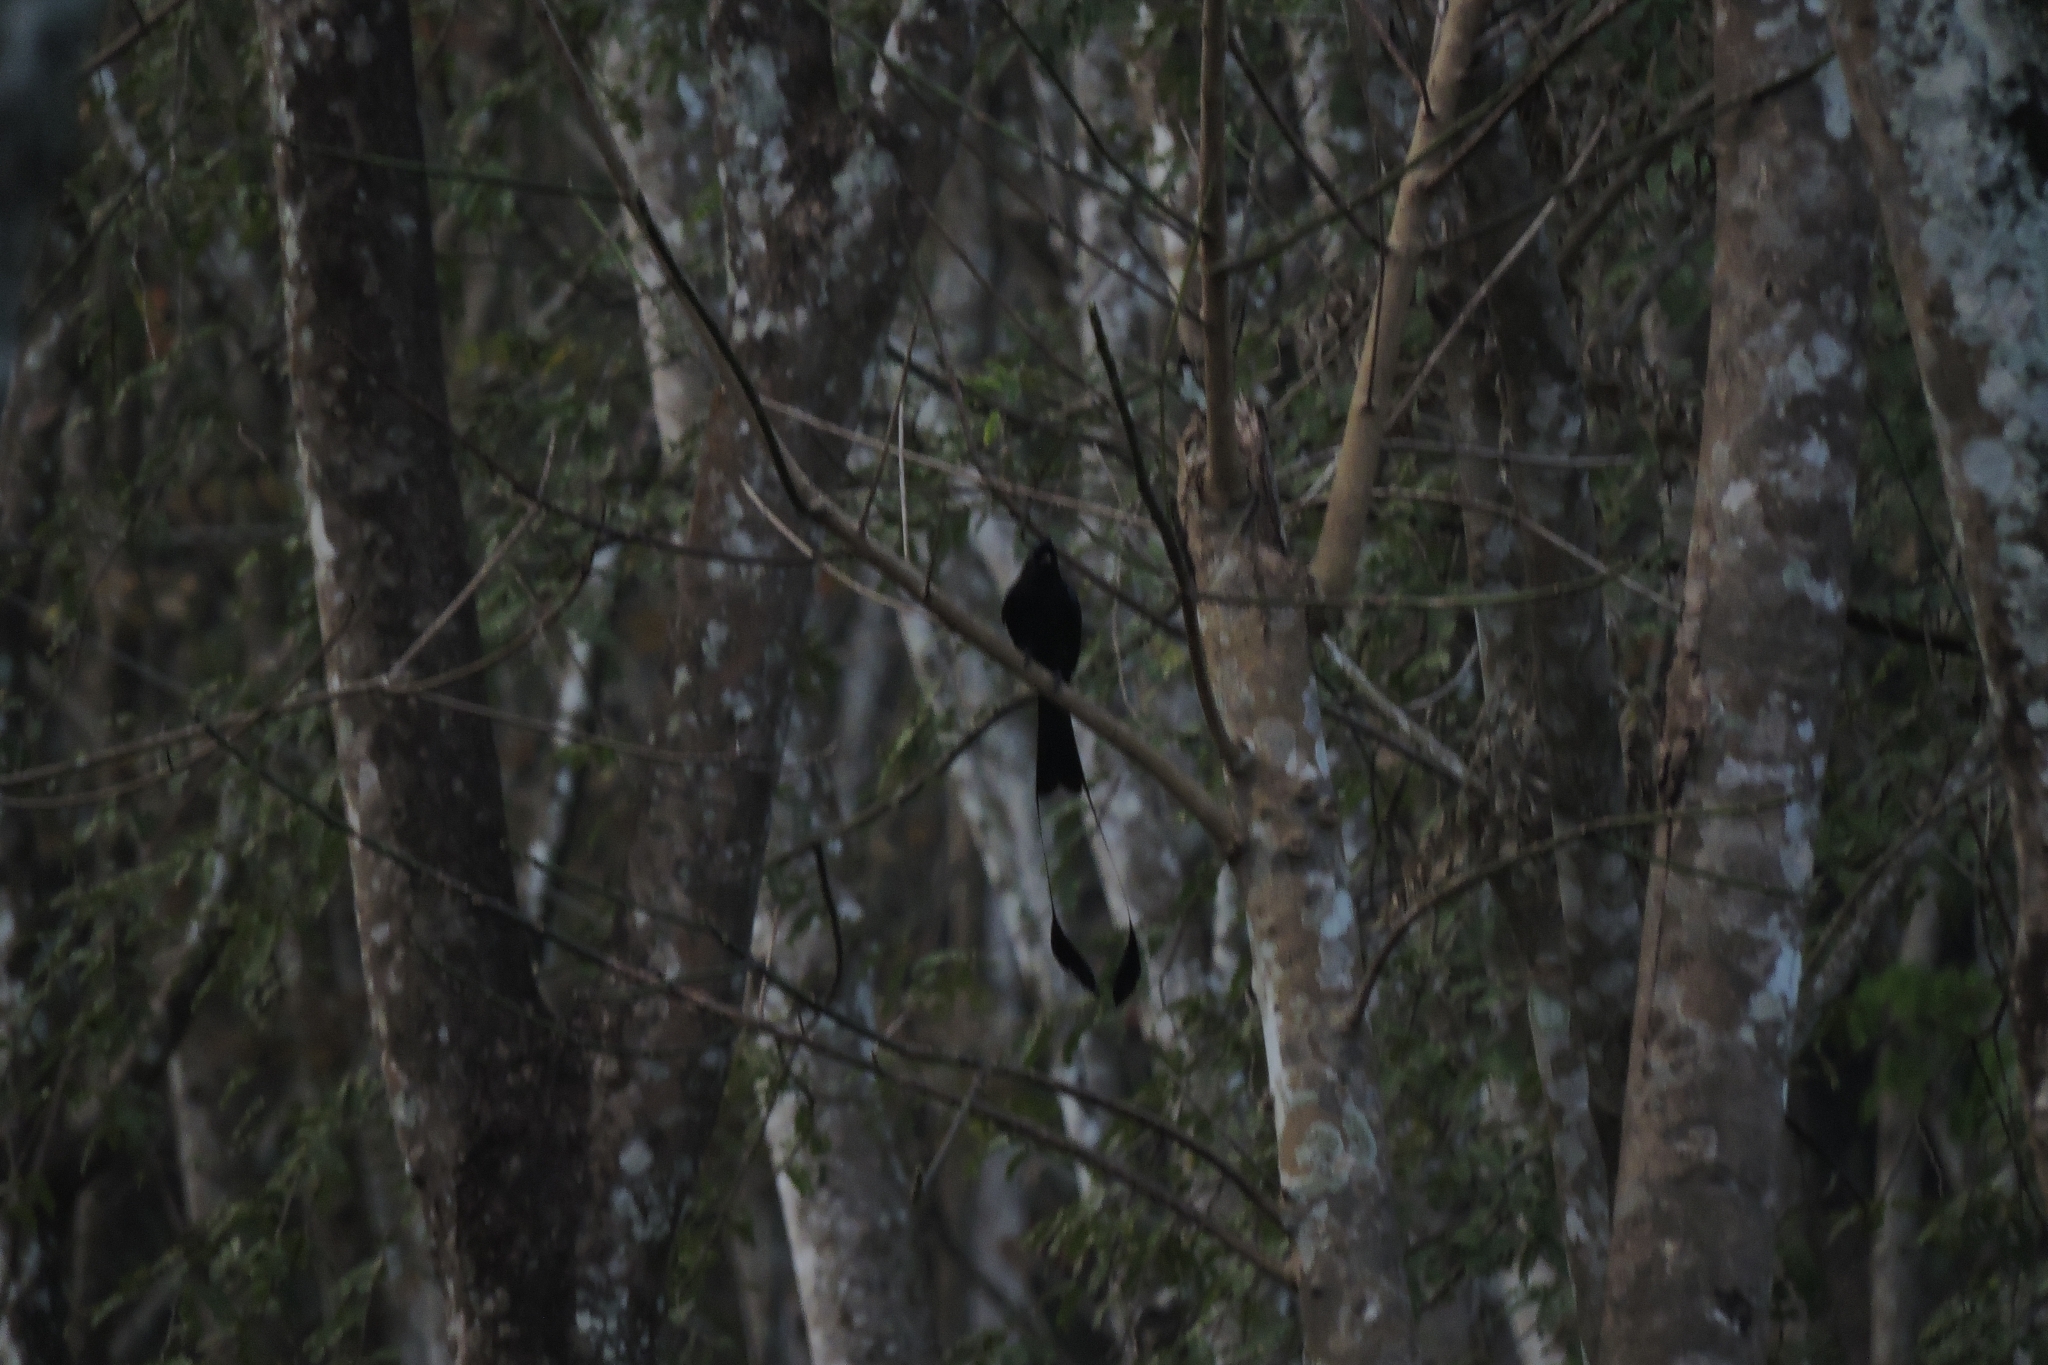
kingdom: Animalia
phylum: Chordata
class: Aves
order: Passeriformes
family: Dicruridae
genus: Dicrurus
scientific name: Dicrurus paradiseus
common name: Greater racket-tailed drongo
